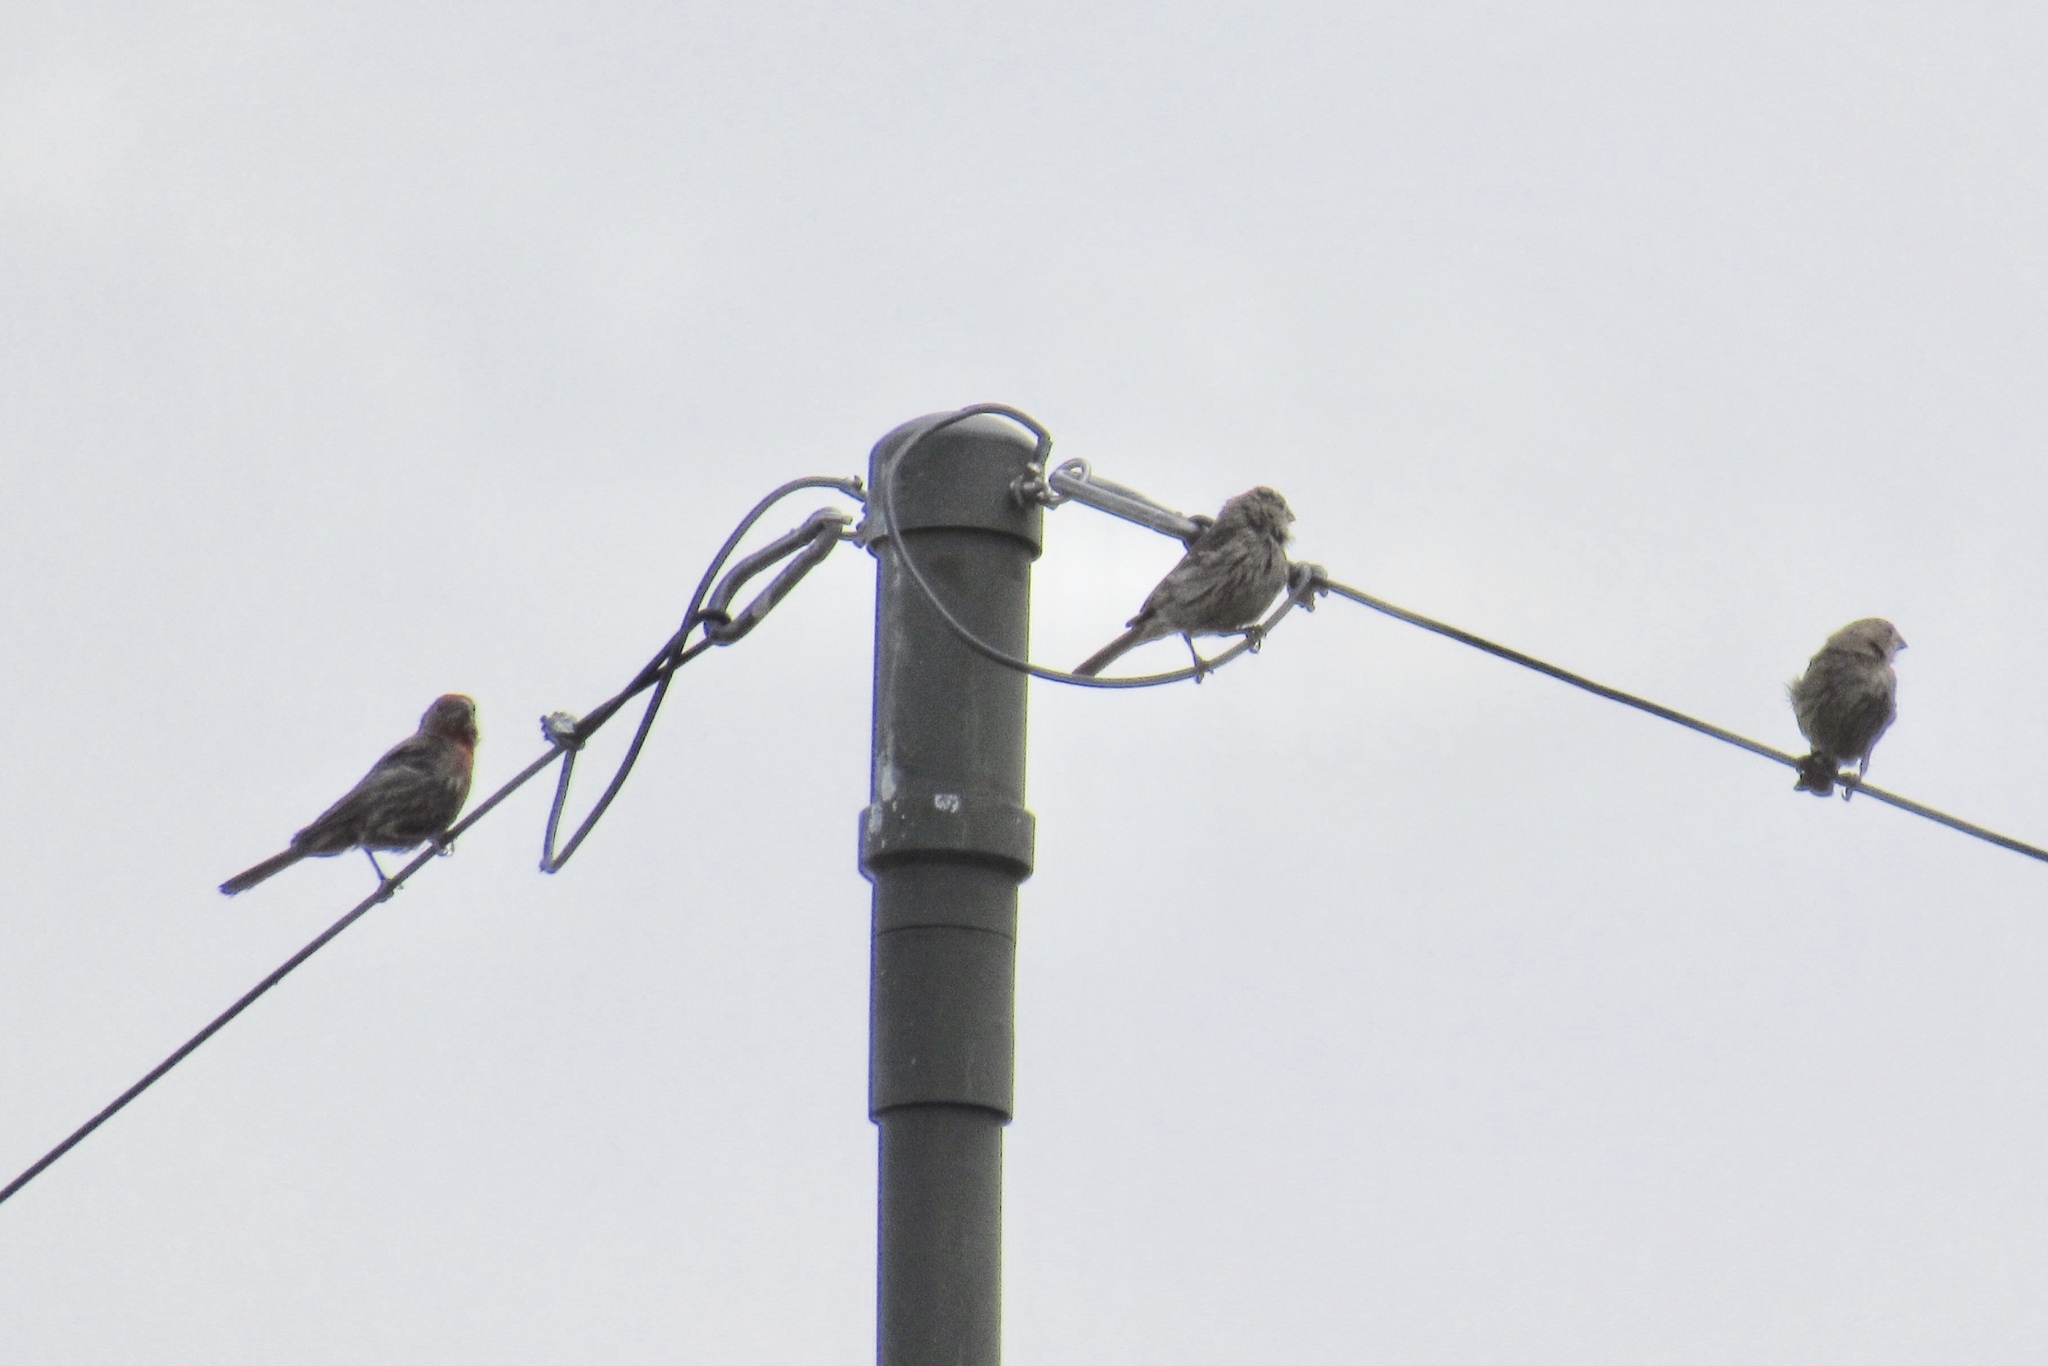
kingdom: Animalia
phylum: Chordata
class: Aves
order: Passeriformes
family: Fringillidae
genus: Haemorhous
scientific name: Haemorhous mexicanus
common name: House finch
